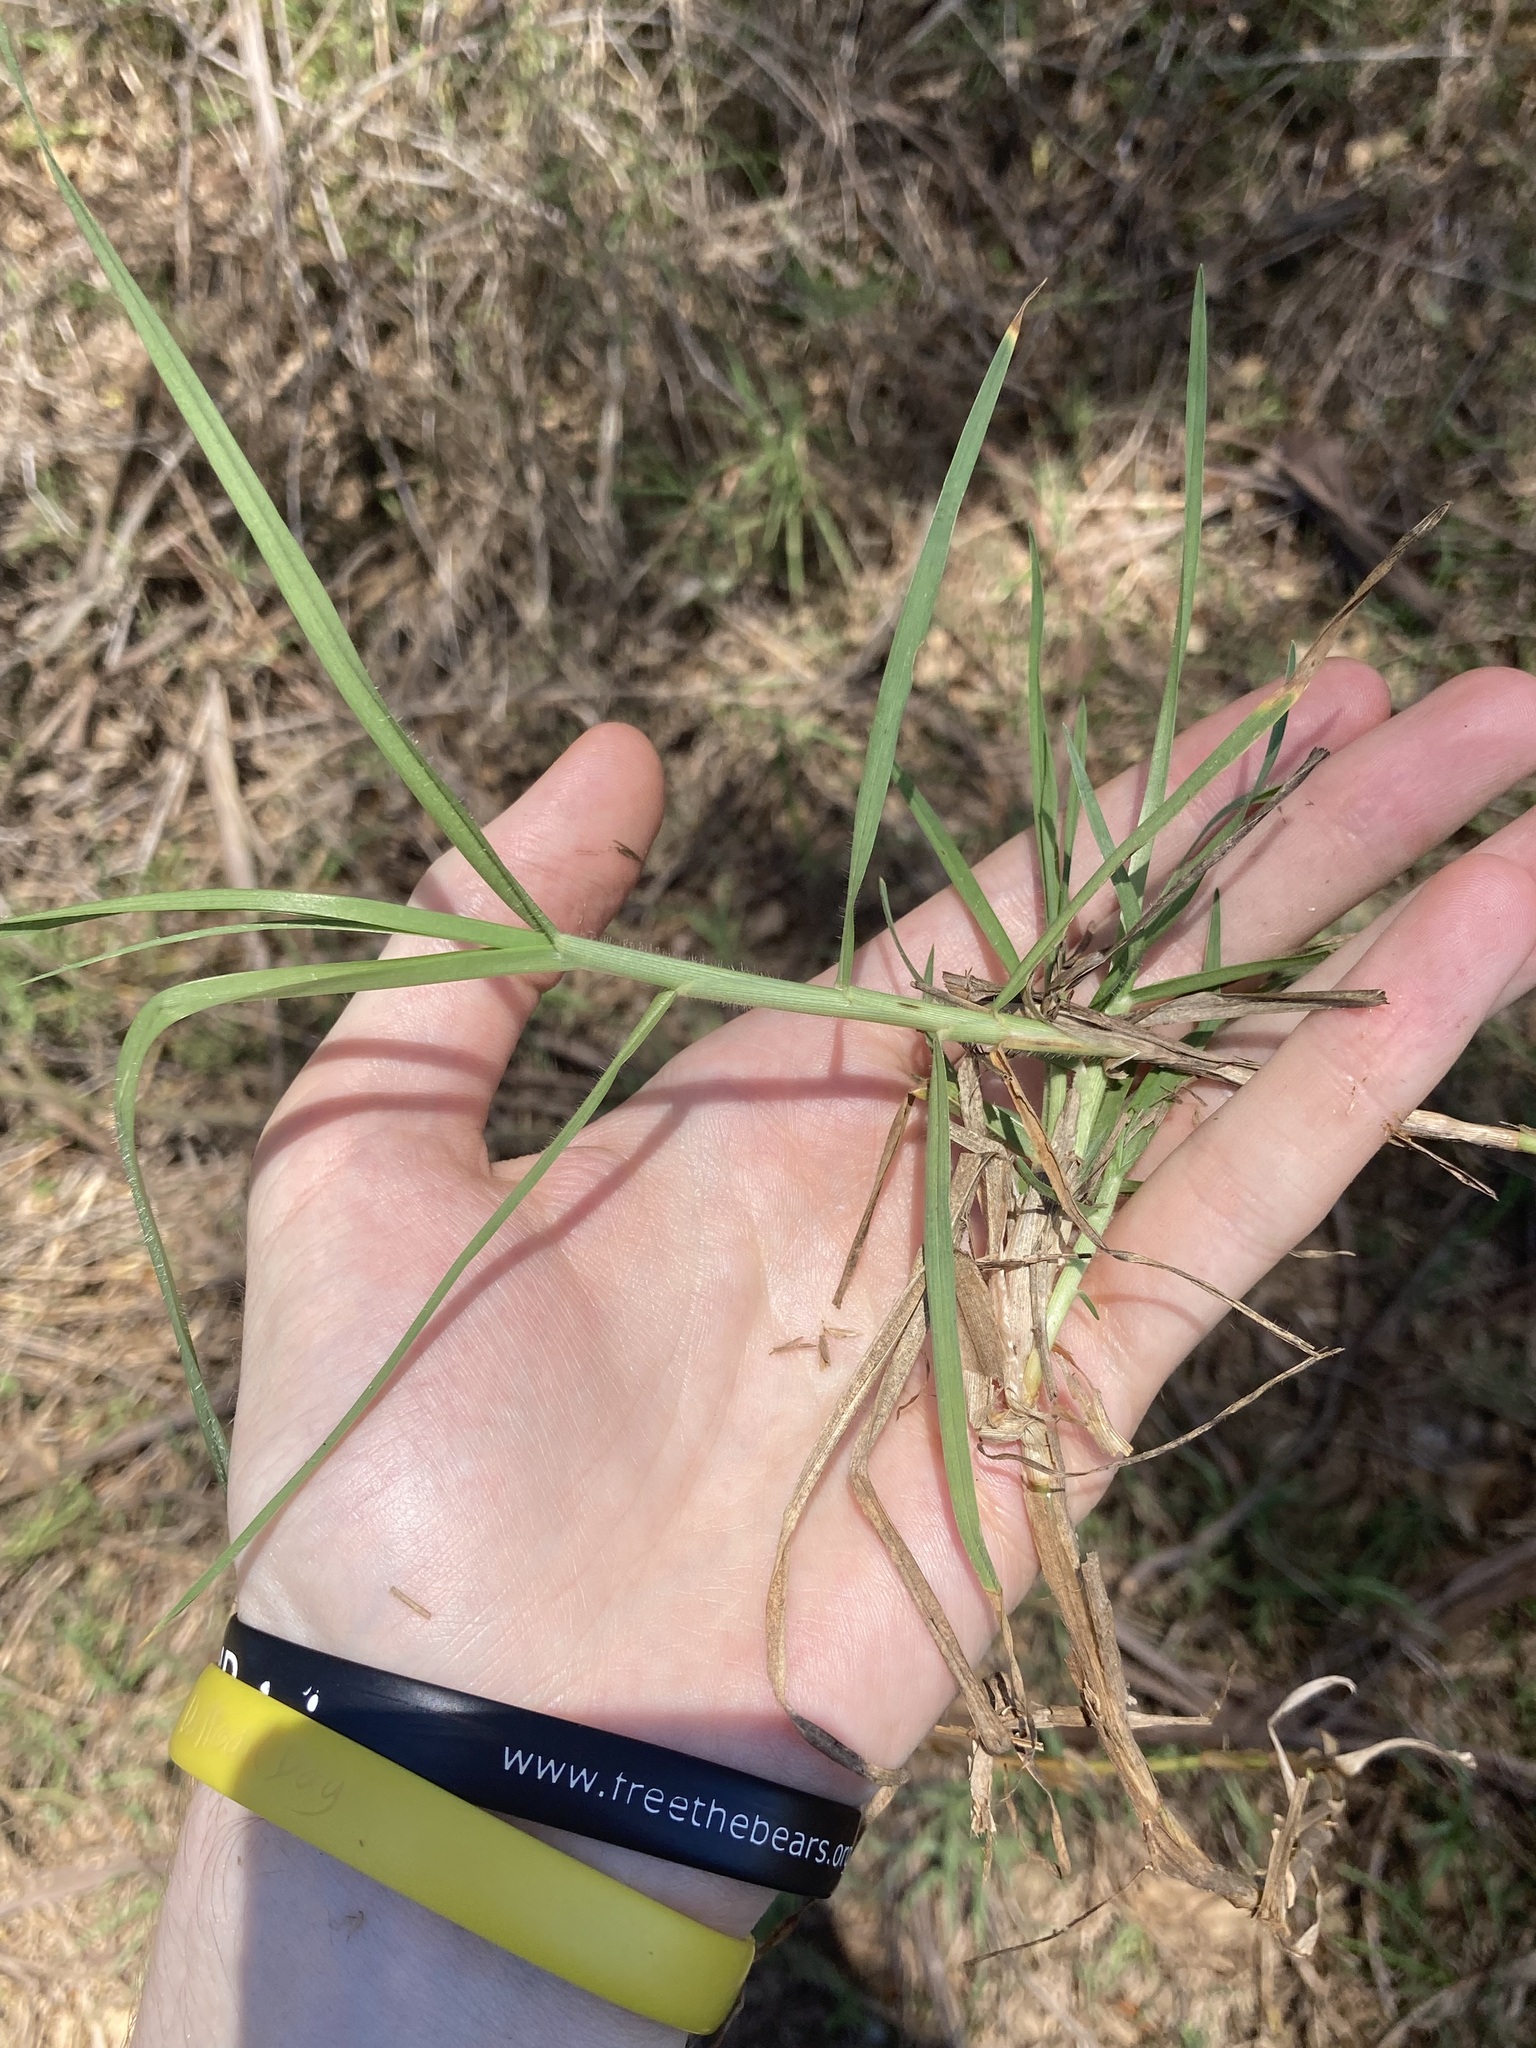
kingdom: Plantae
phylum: Tracheophyta
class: Liliopsida
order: Poales
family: Poaceae
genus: Cenchrus
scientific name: Cenchrus clandestinus
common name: Kikuyugrass
